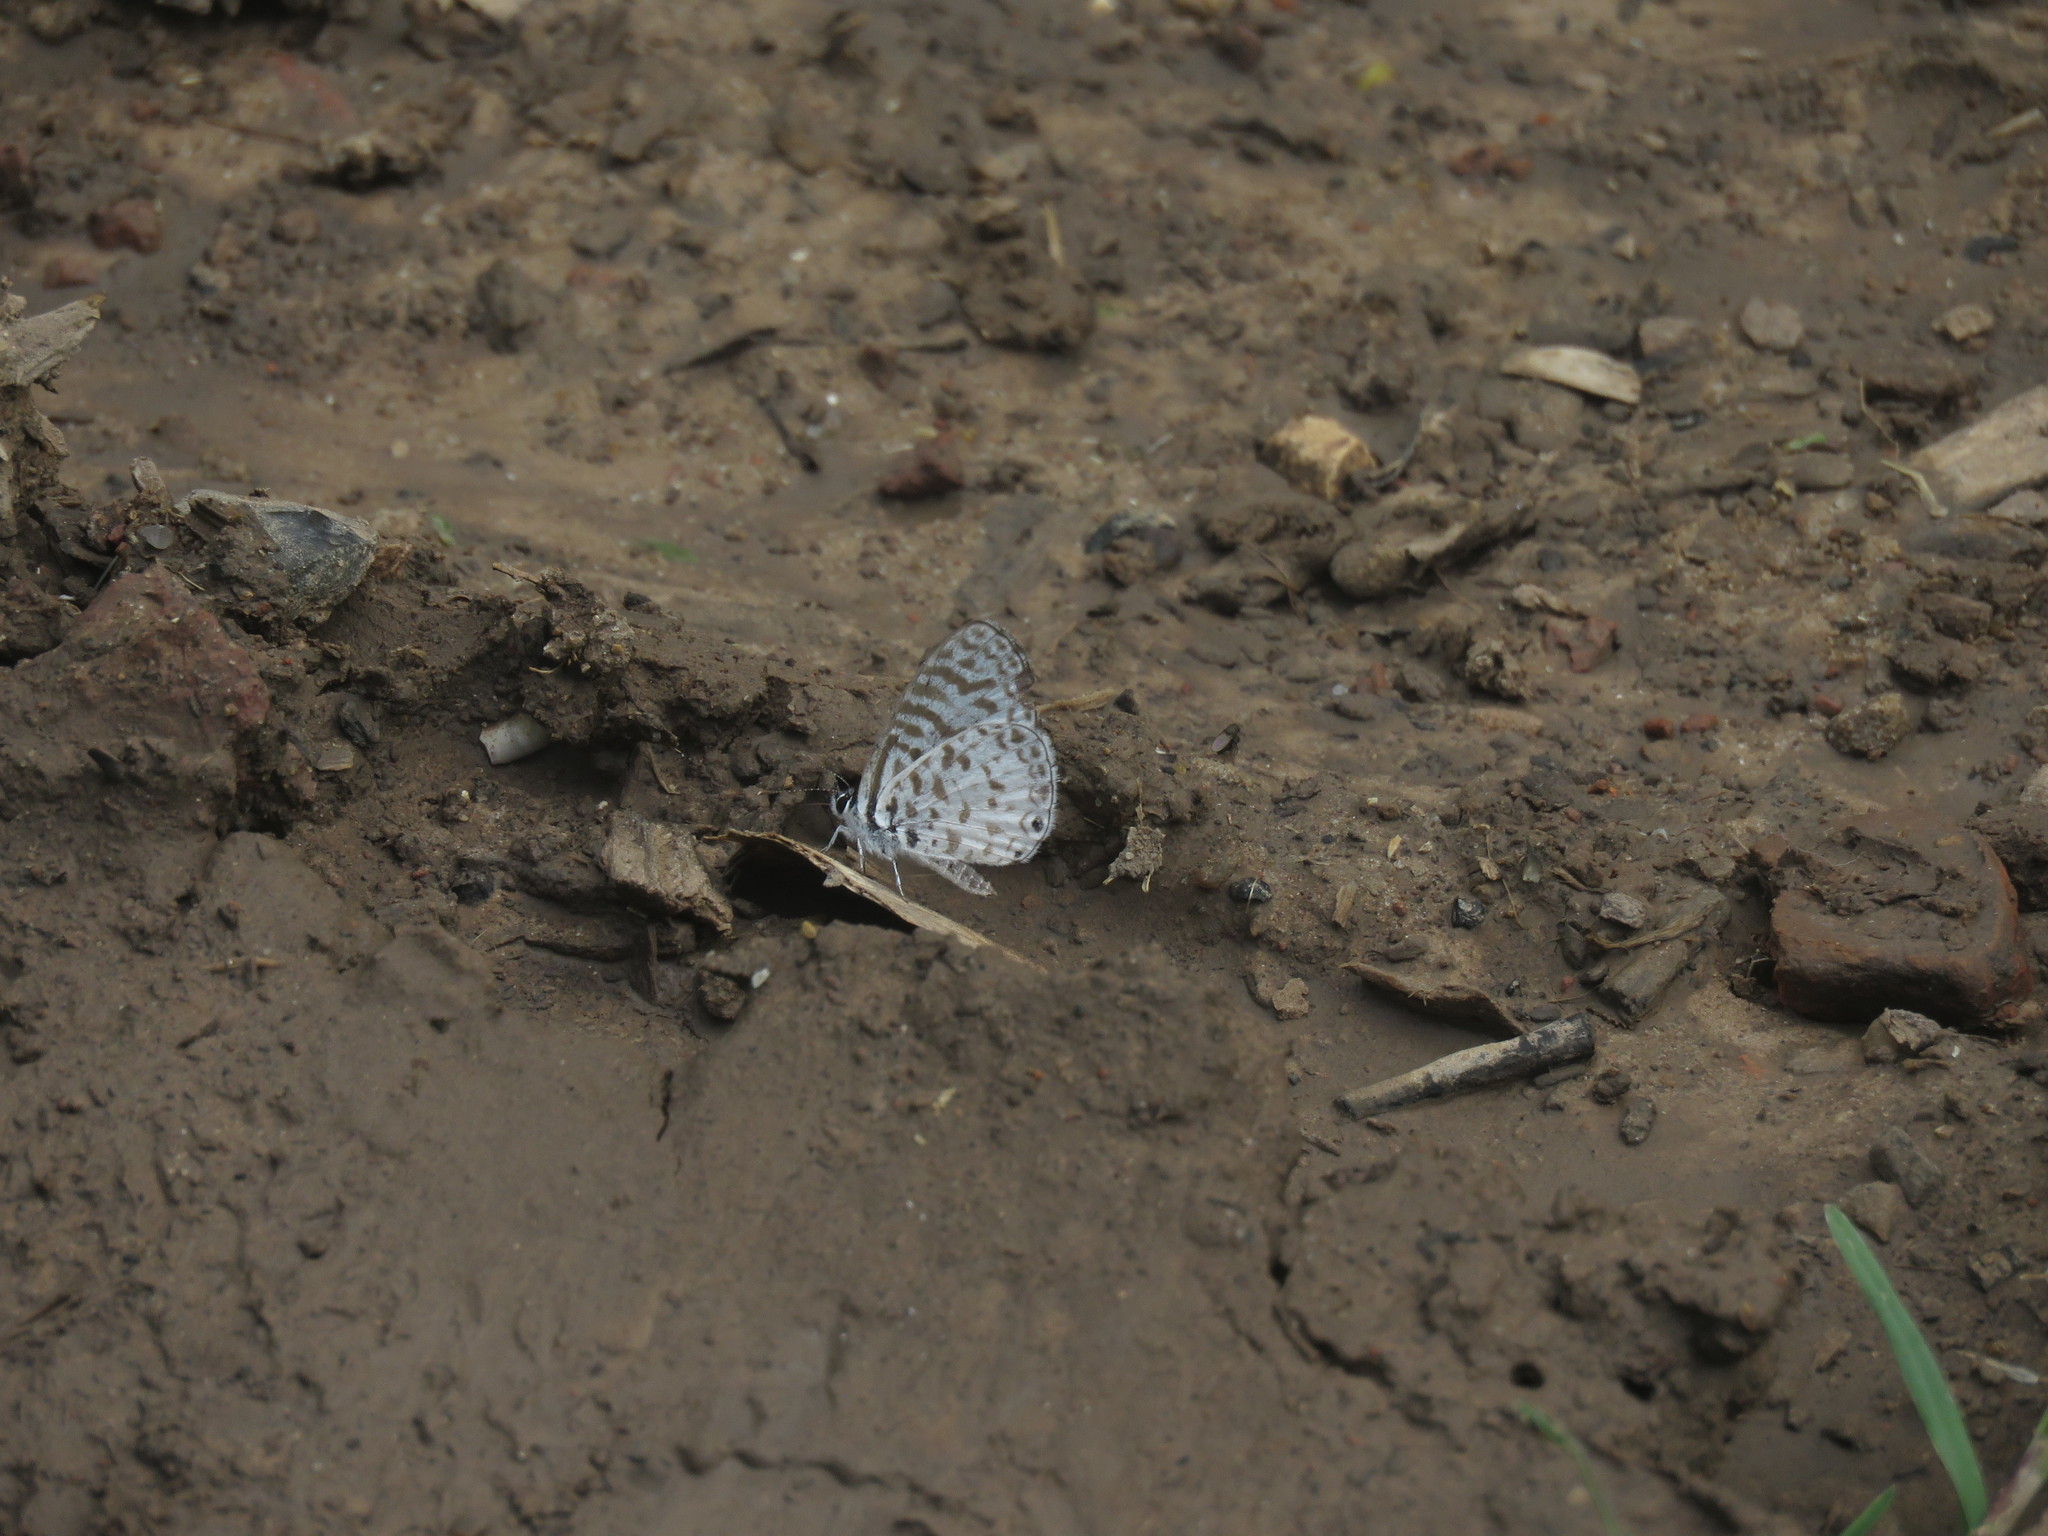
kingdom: Animalia
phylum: Arthropoda
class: Insecta
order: Lepidoptera
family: Lycaenidae
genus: Leptotes
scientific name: Leptotes cassius
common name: Cassius blue
